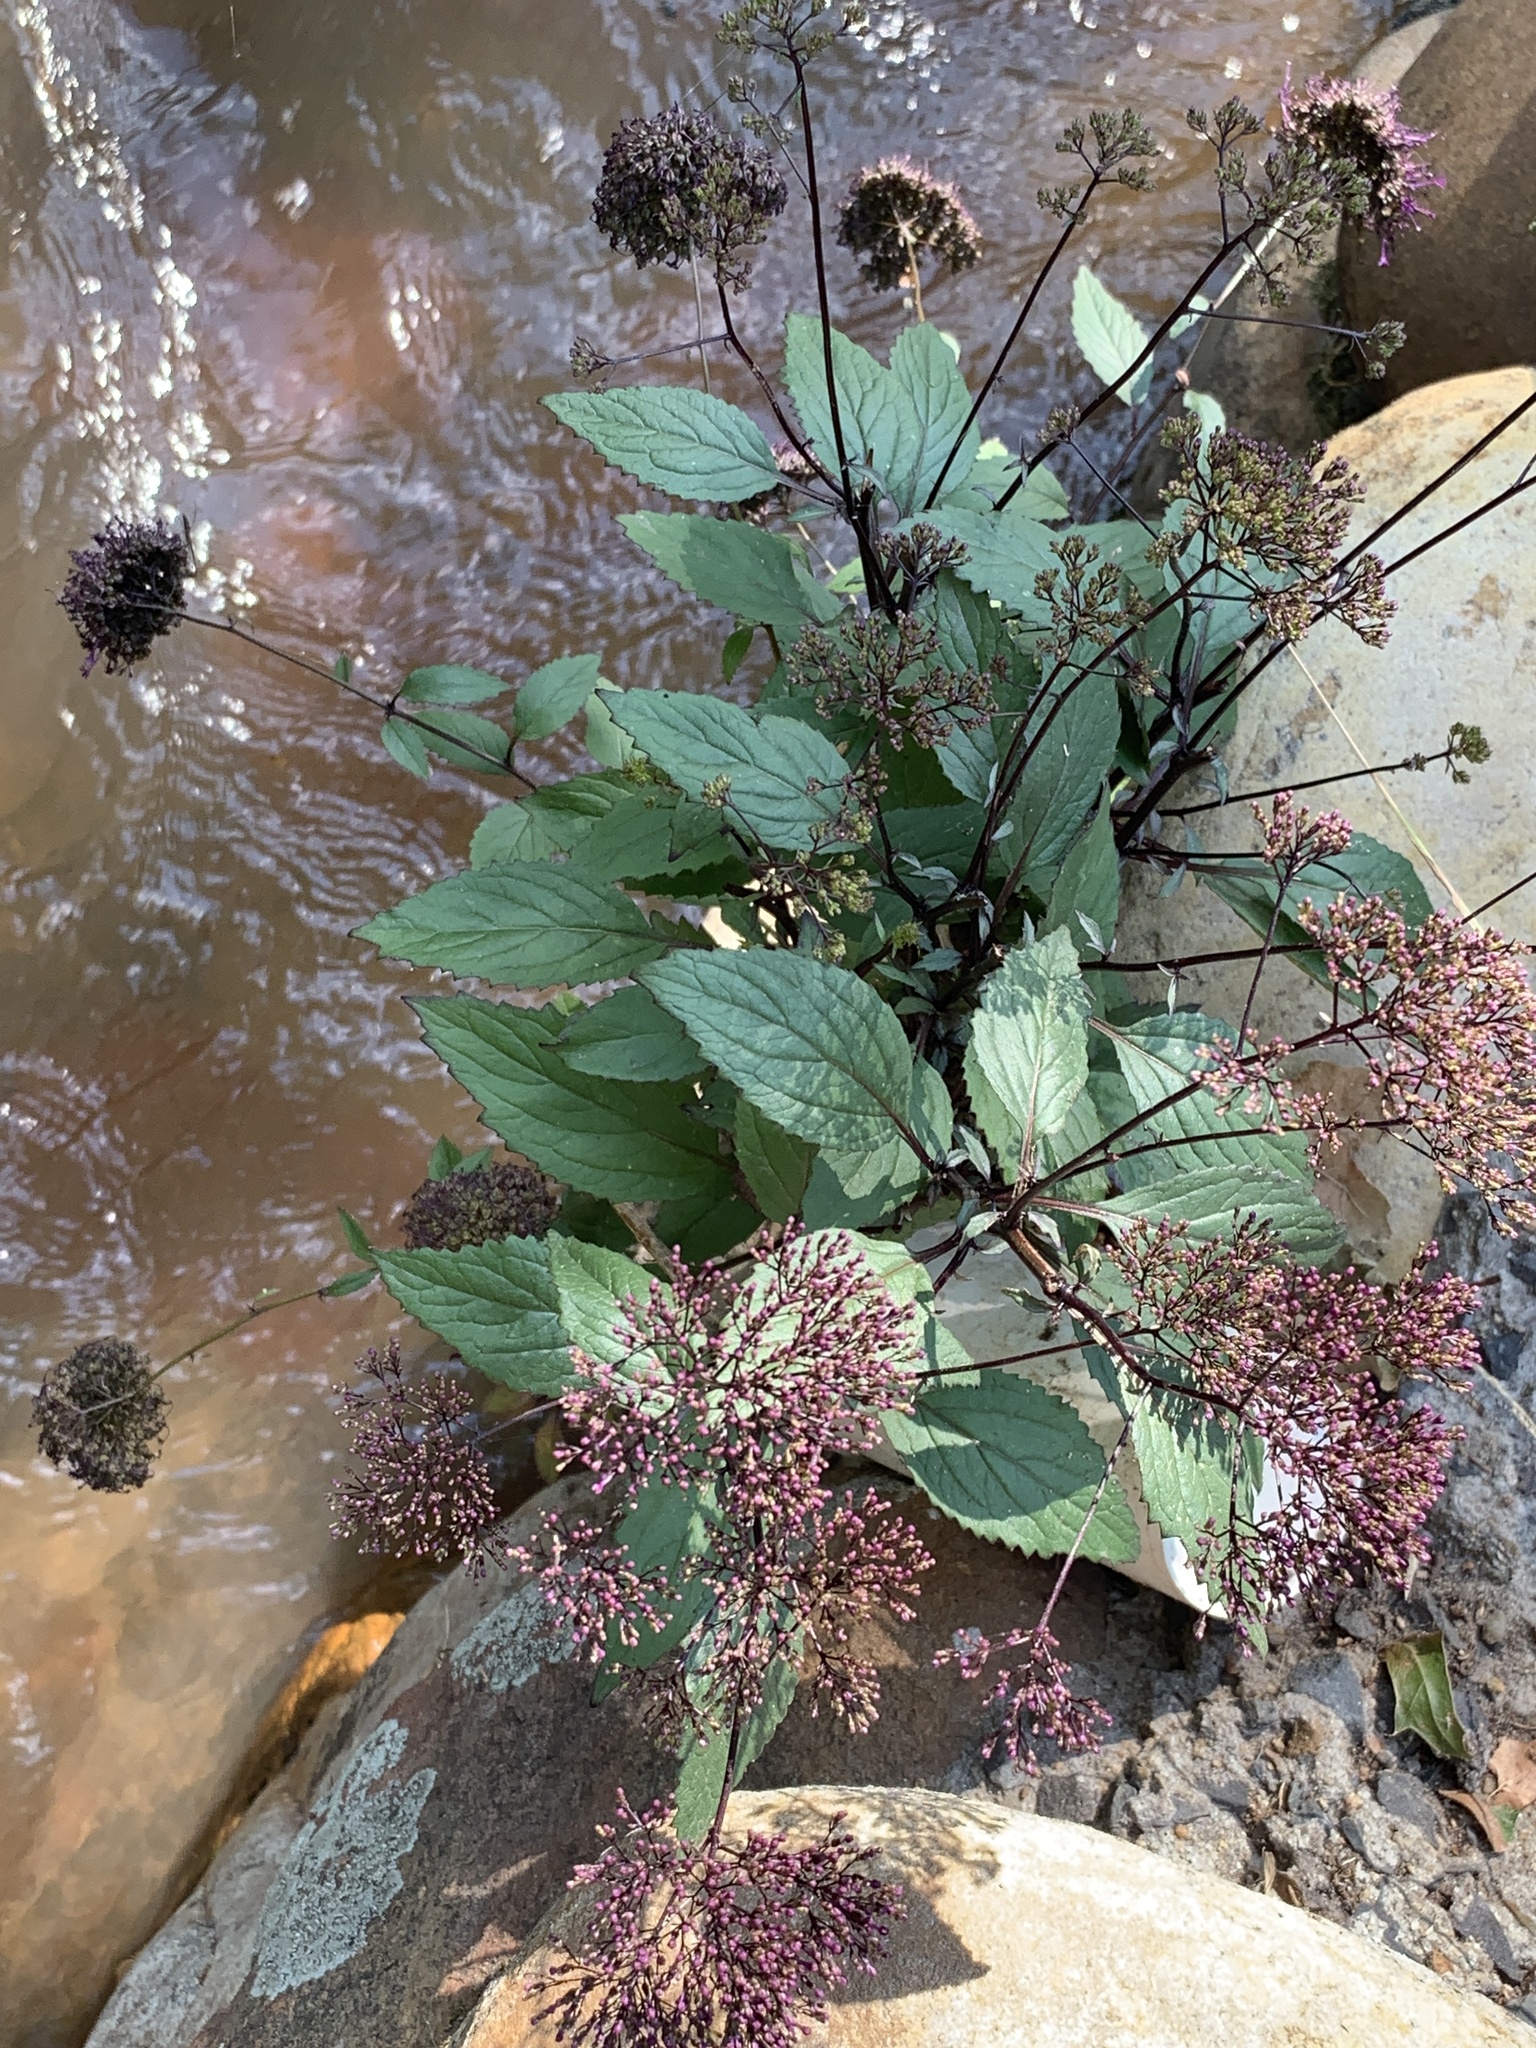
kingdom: Plantae
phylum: Tracheophyta
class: Magnoliopsida
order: Asterales
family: Campanulaceae
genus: Trachelium
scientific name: Trachelium caeruleum
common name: Throatwort
